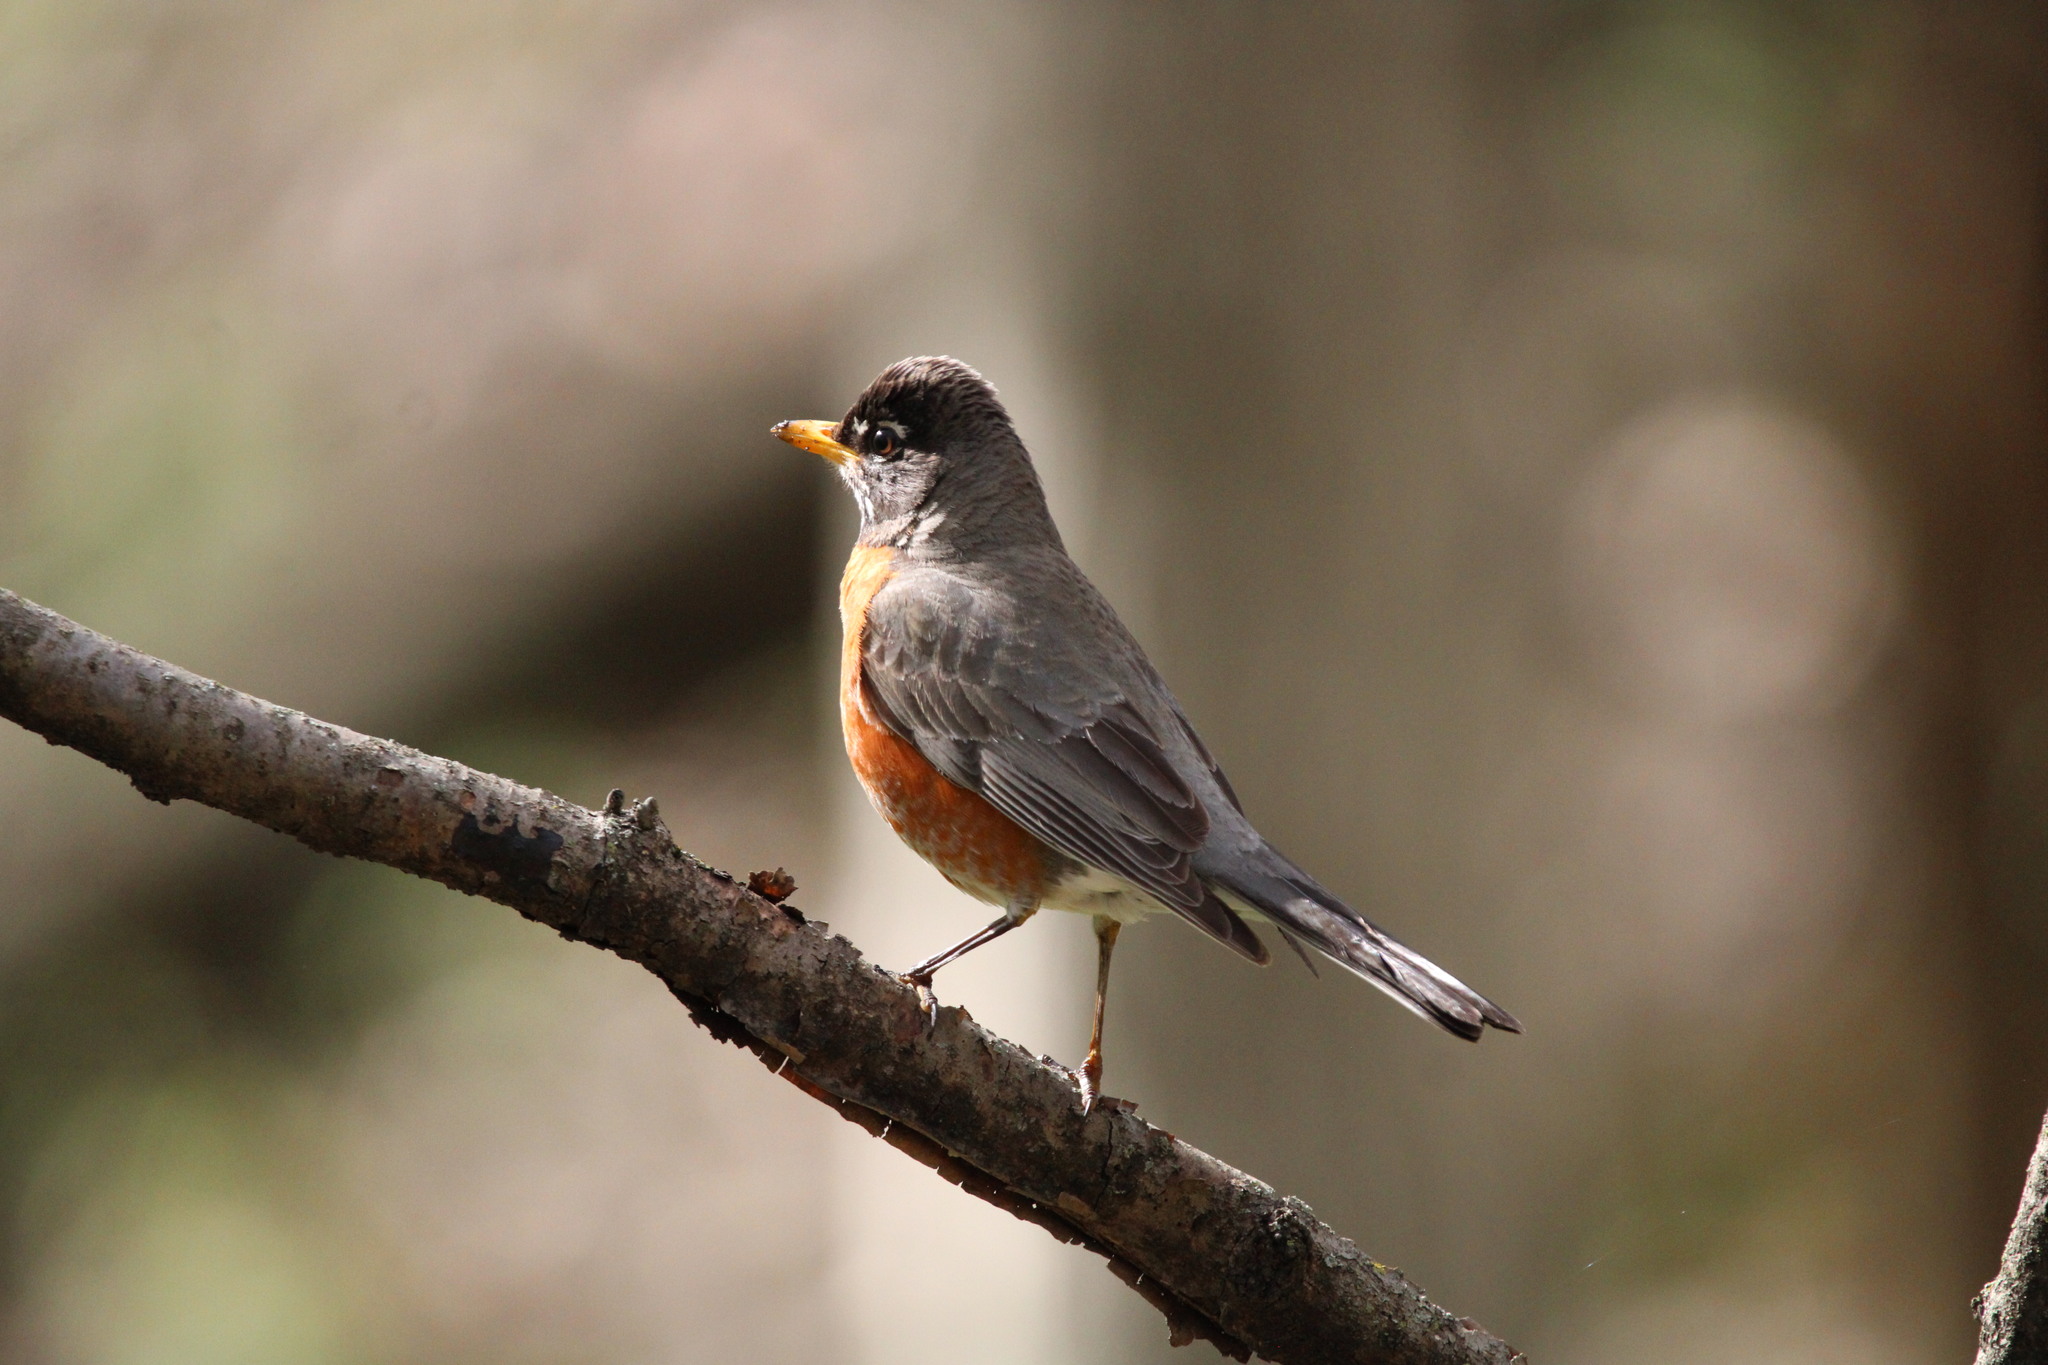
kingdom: Animalia
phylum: Chordata
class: Aves
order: Passeriformes
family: Turdidae
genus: Turdus
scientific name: Turdus migratorius
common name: American robin
